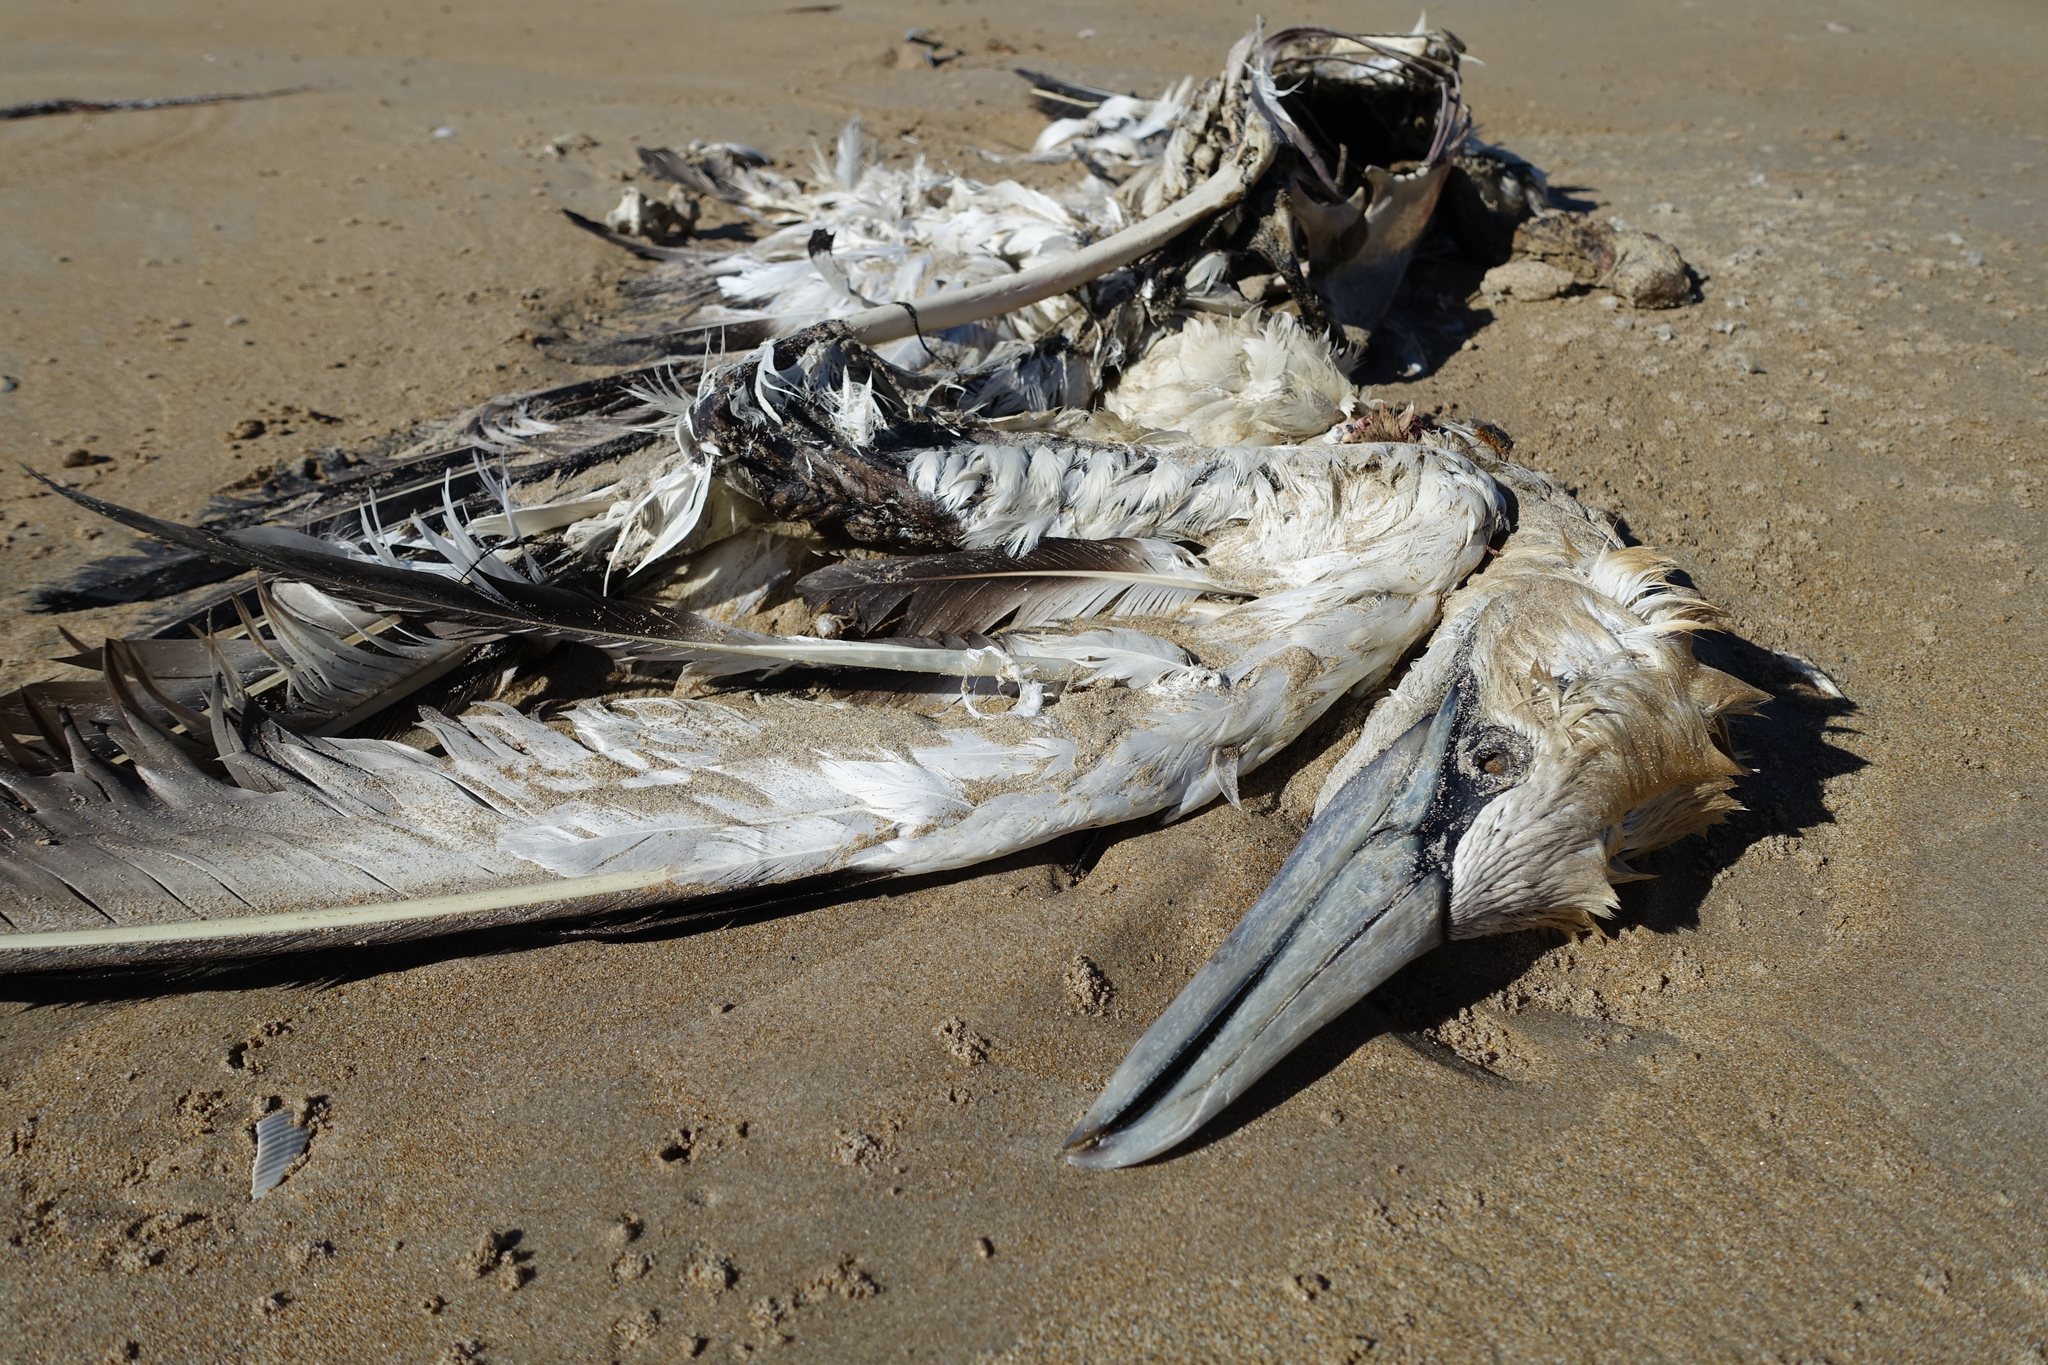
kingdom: Animalia
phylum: Chordata
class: Aves
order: Suliformes
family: Sulidae
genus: Morus
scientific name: Morus serrator
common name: Australasian gannet
